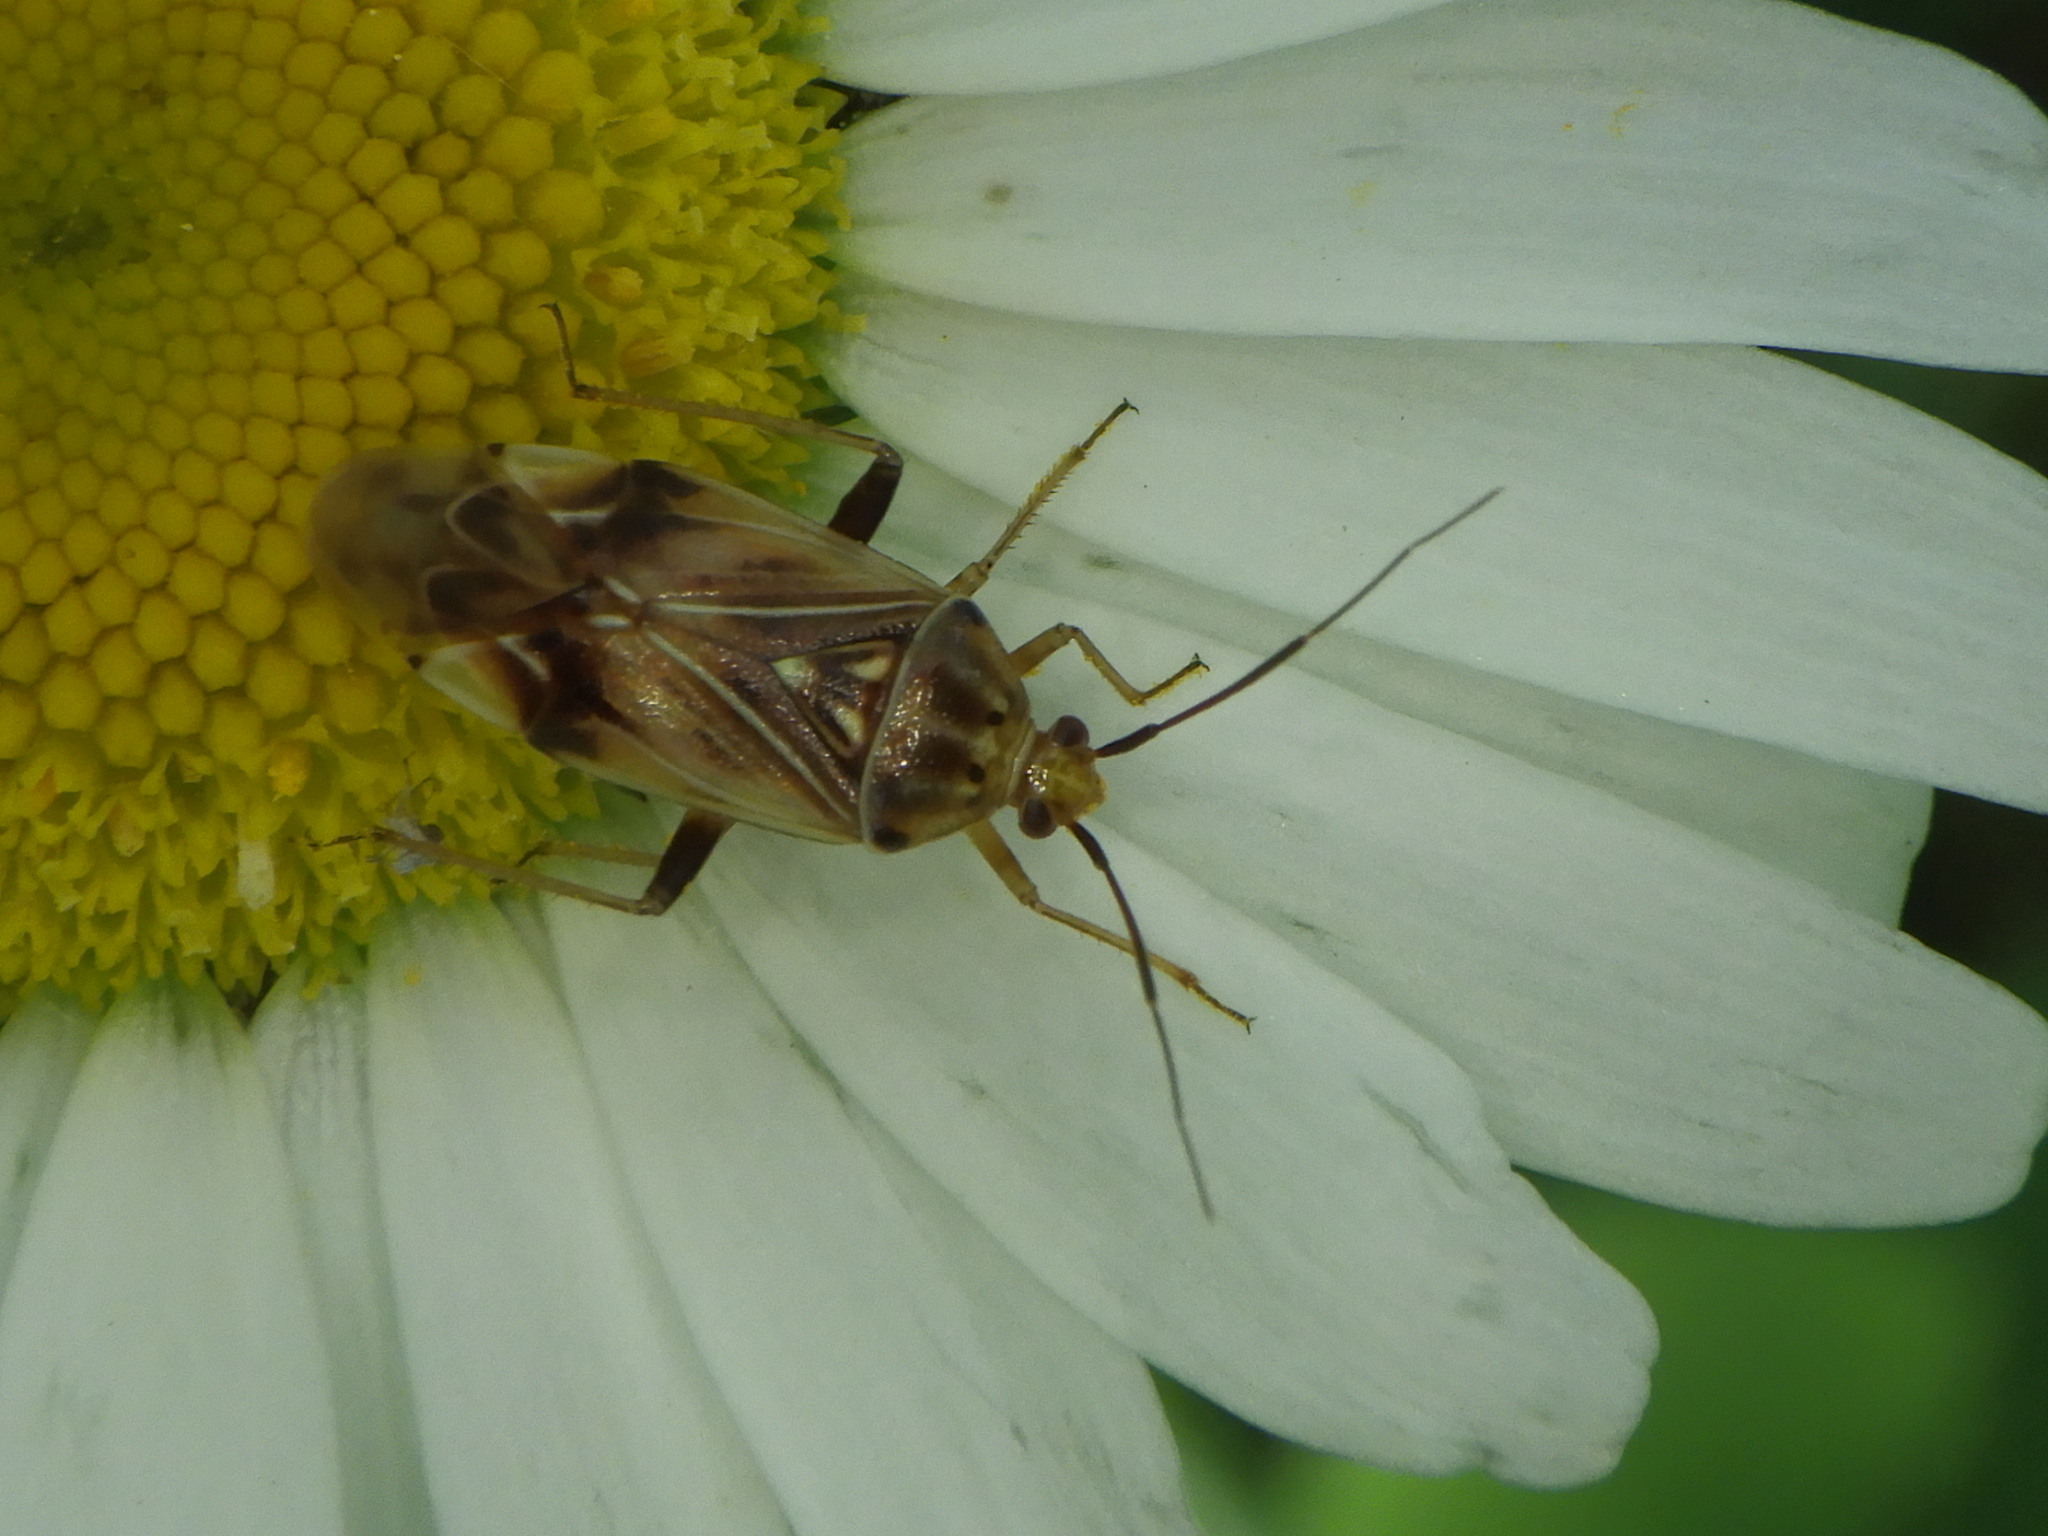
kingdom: Animalia
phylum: Arthropoda
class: Insecta
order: Hemiptera
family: Miridae
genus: Lygus
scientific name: Lygus vanduzeei
